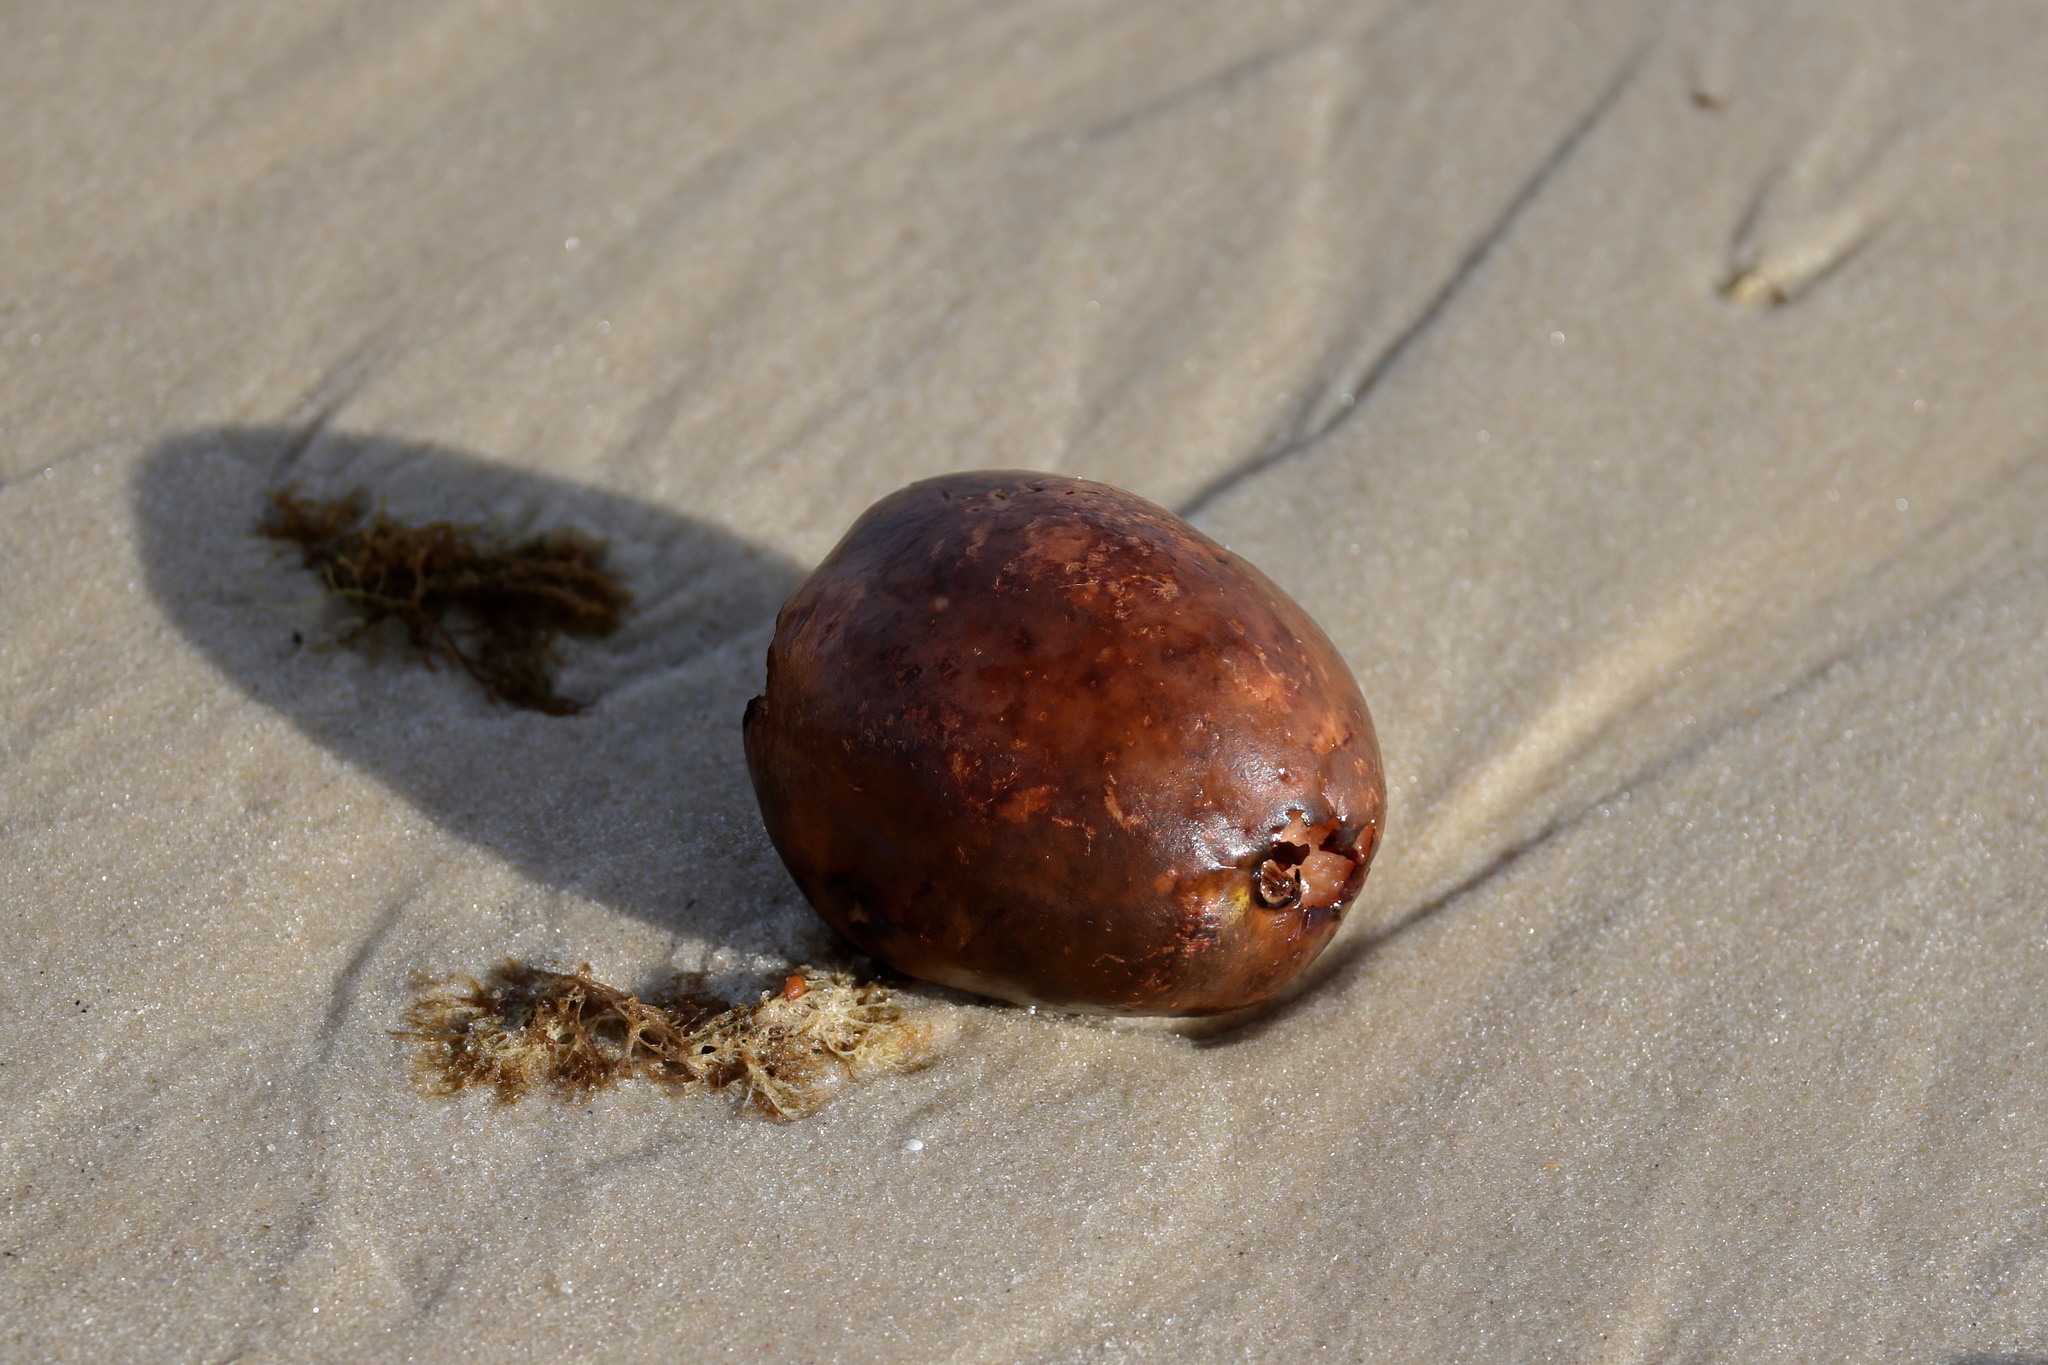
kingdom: Plantae
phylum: Tracheophyta
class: Liliopsida
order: Arecales
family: Arecaceae
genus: Cocos
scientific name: Cocos nucifera
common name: Coconut palm
